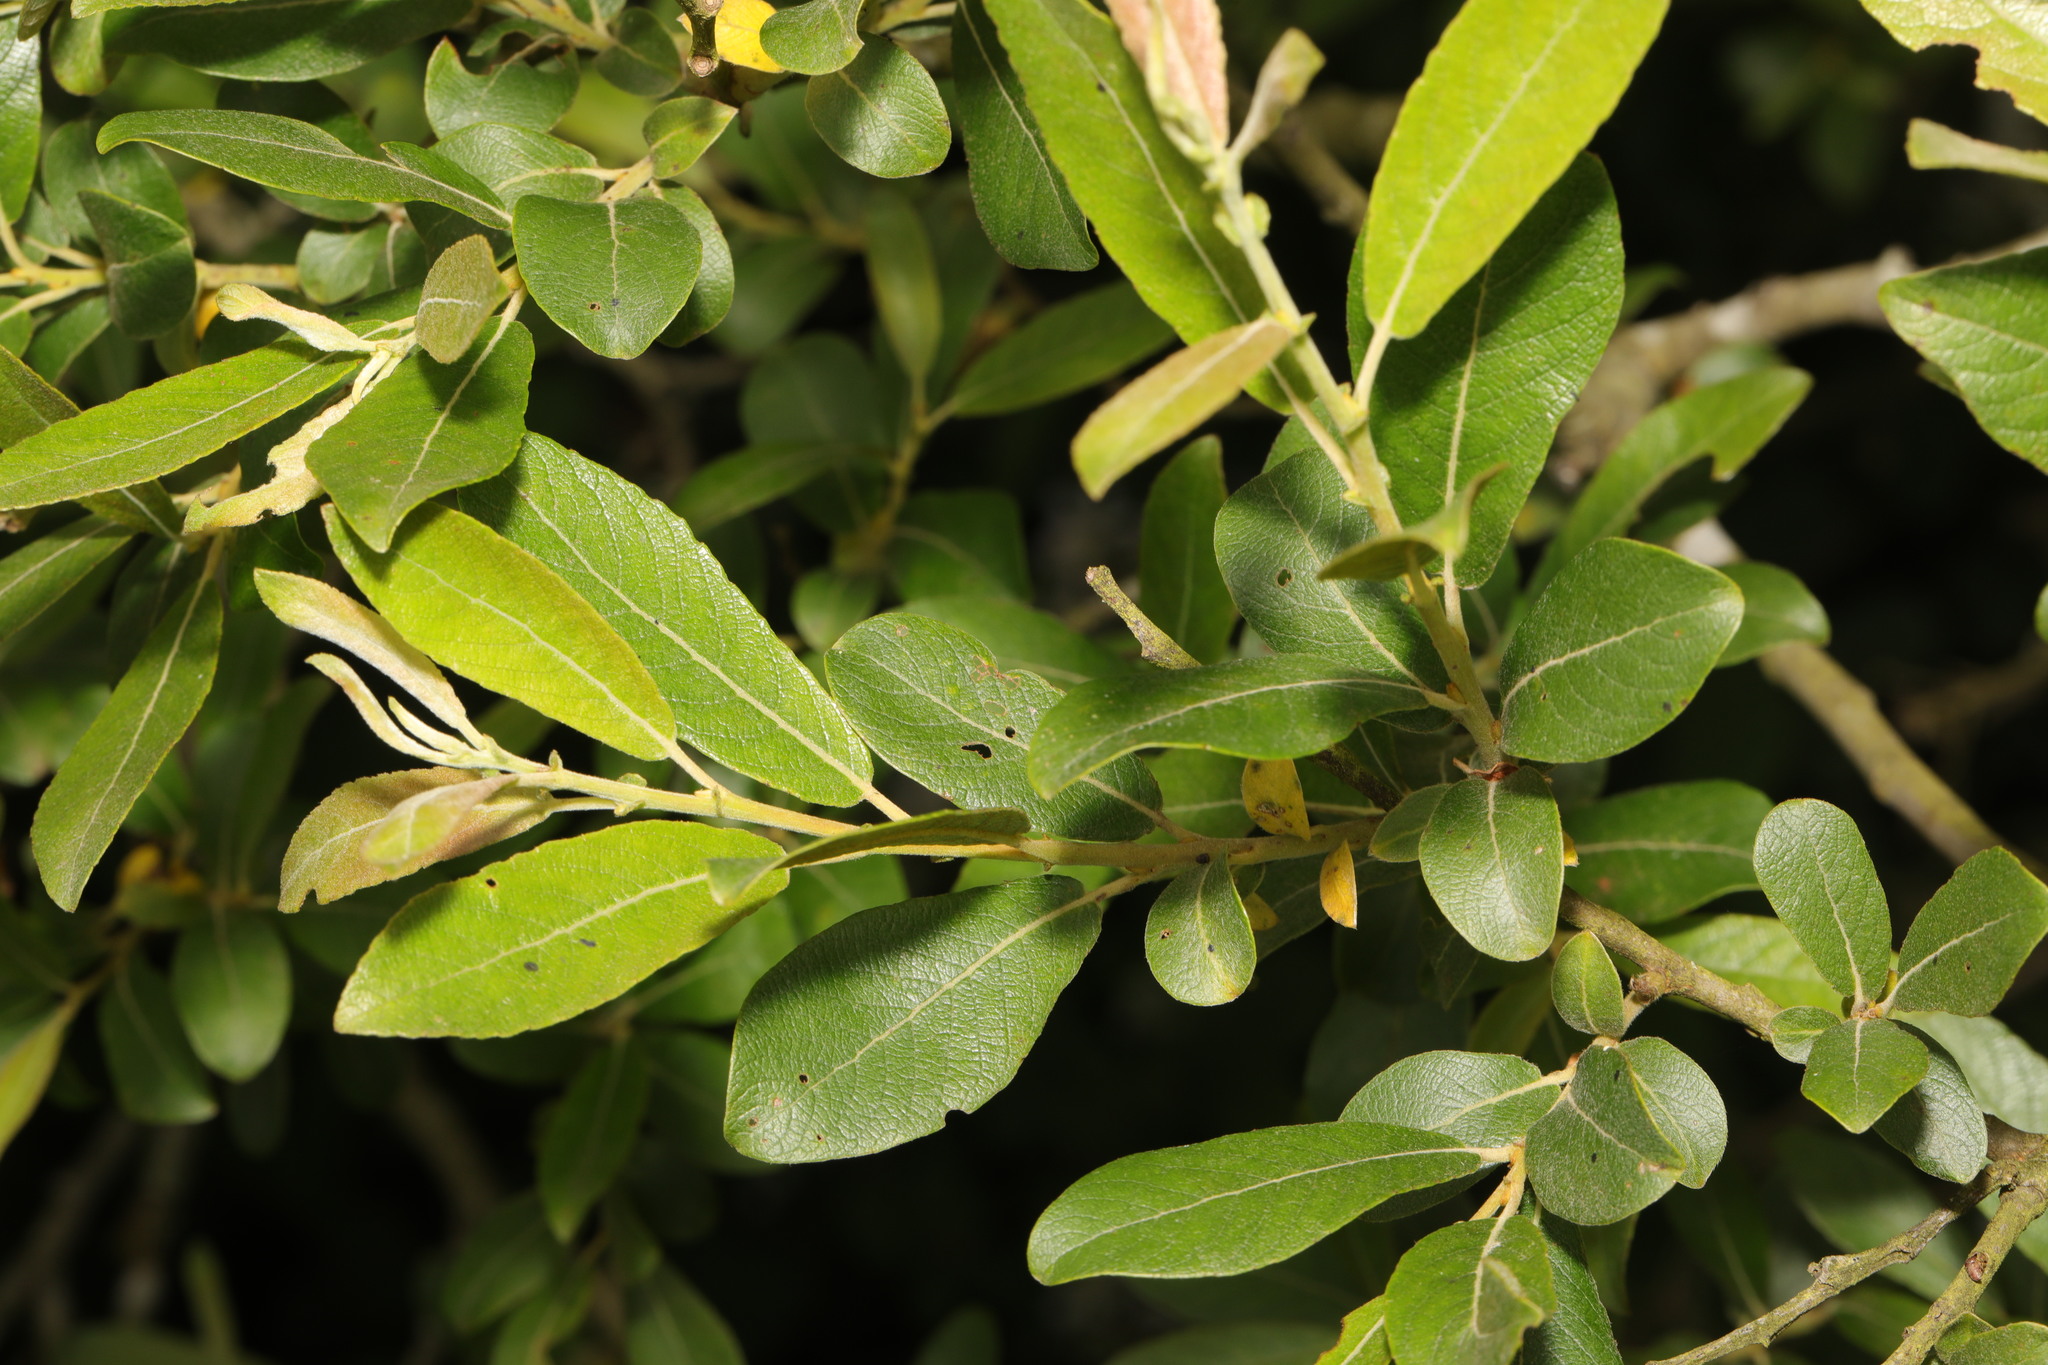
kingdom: Plantae
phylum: Tracheophyta
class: Magnoliopsida
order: Malpighiales
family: Salicaceae
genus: Salix
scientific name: Salix cinerea
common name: Common sallow
